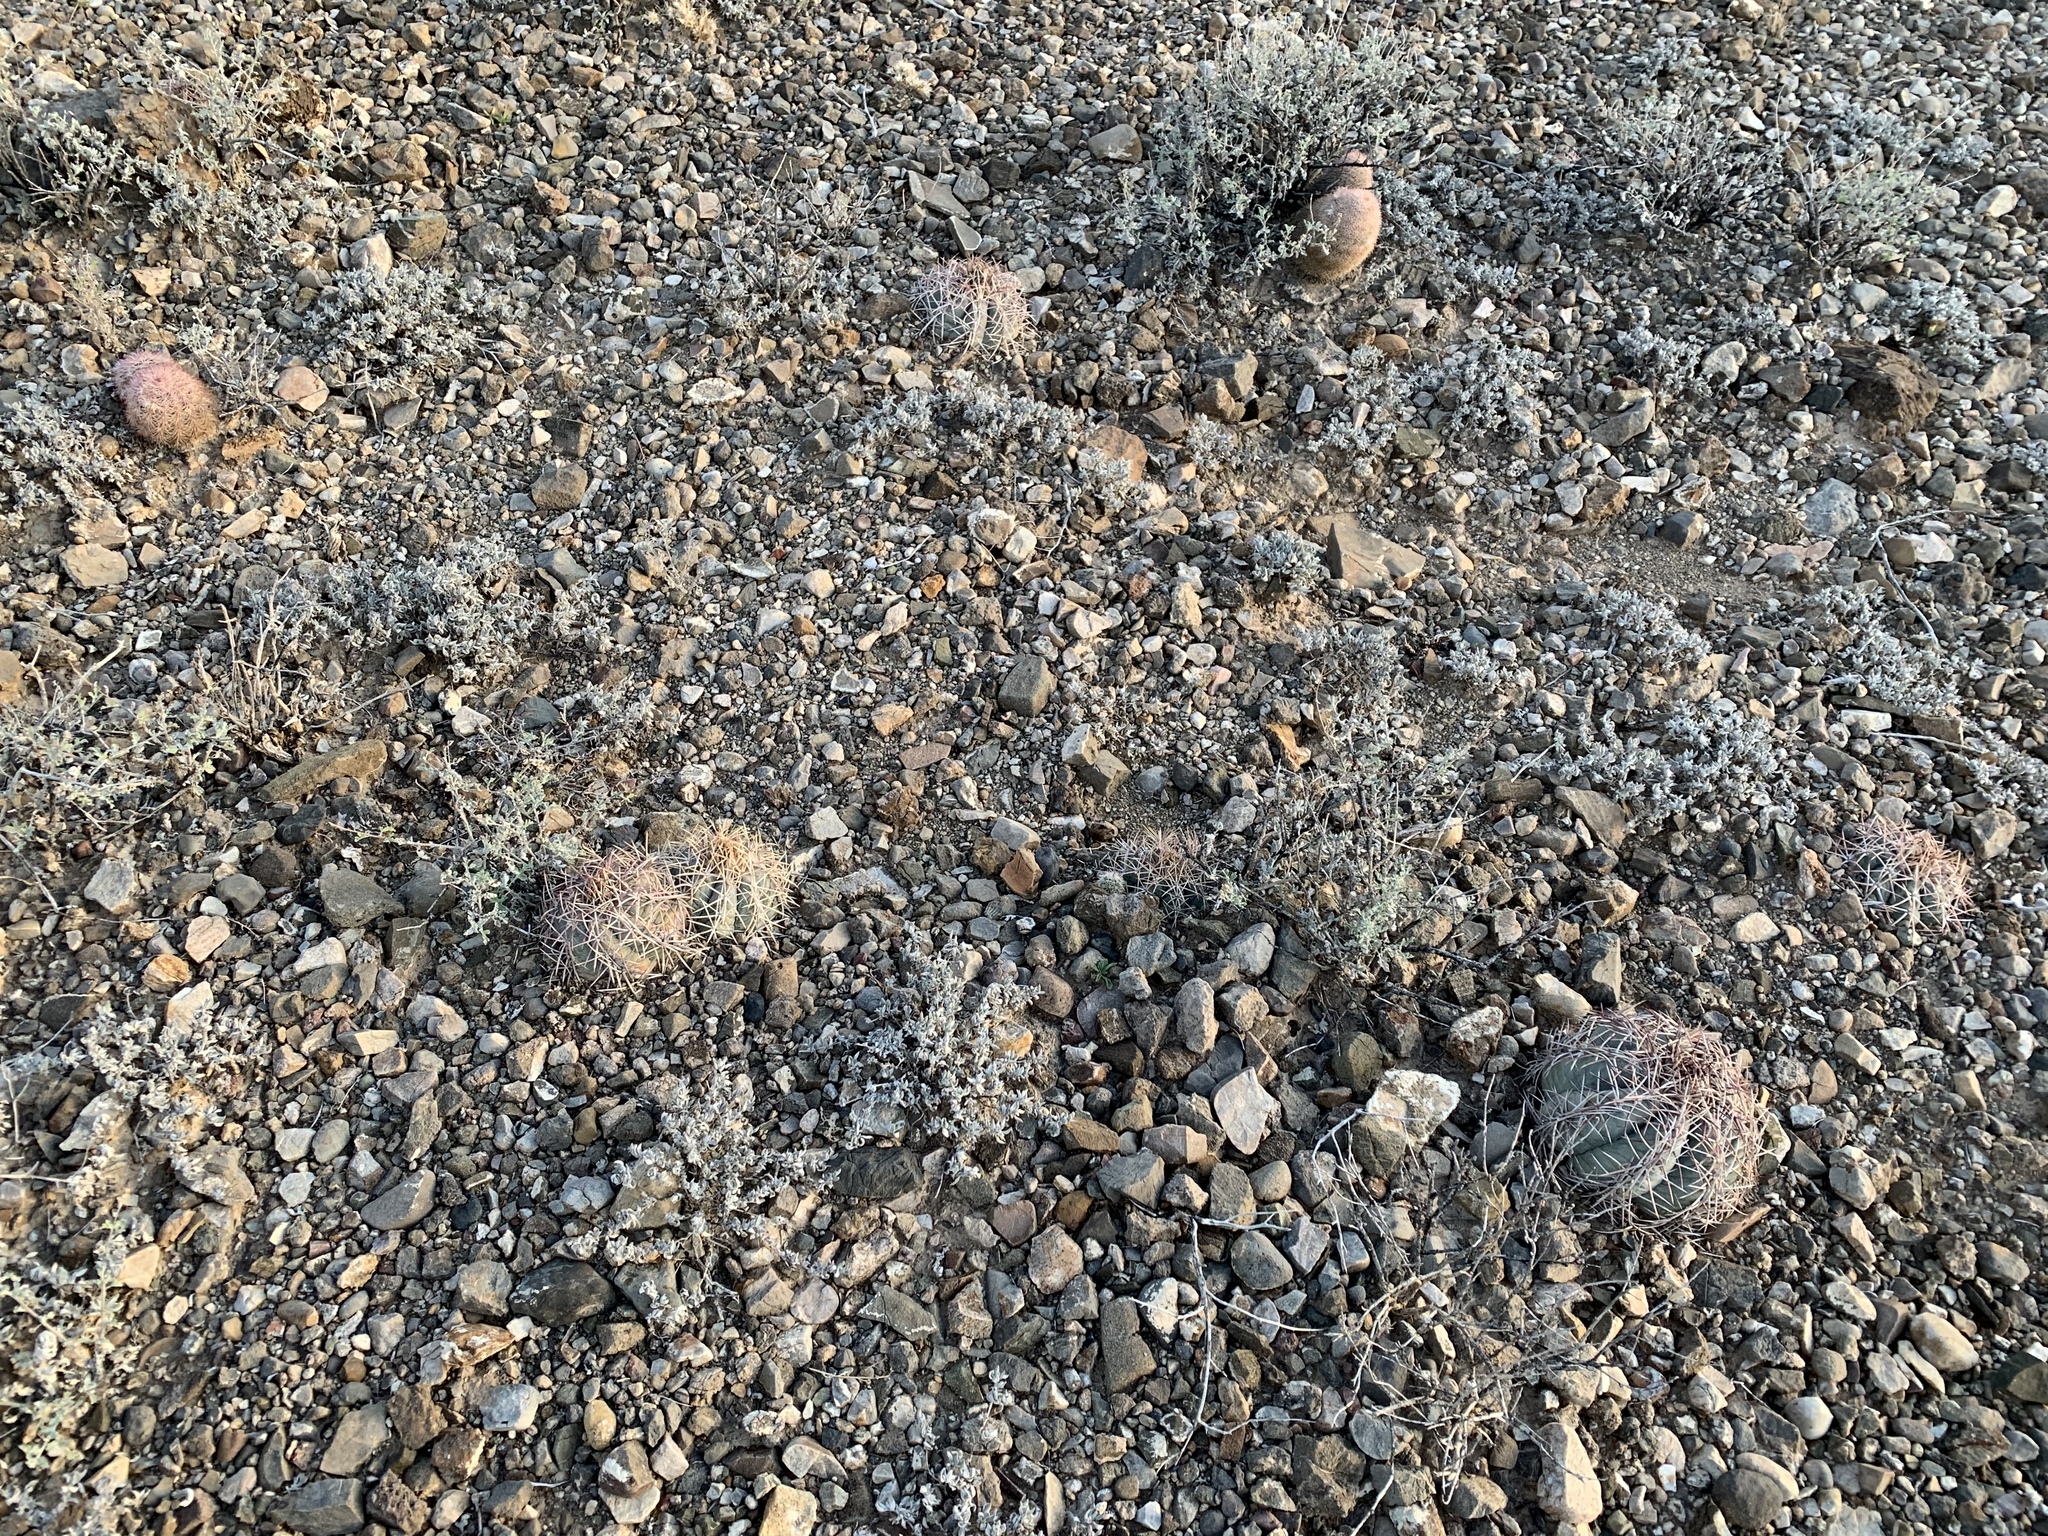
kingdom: Plantae
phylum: Tracheophyta
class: Magnoliopsida
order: Caryophyllales
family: Cactaceae
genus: Echinocactus
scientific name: Echinocactus horizonthalonius
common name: Devilshead
